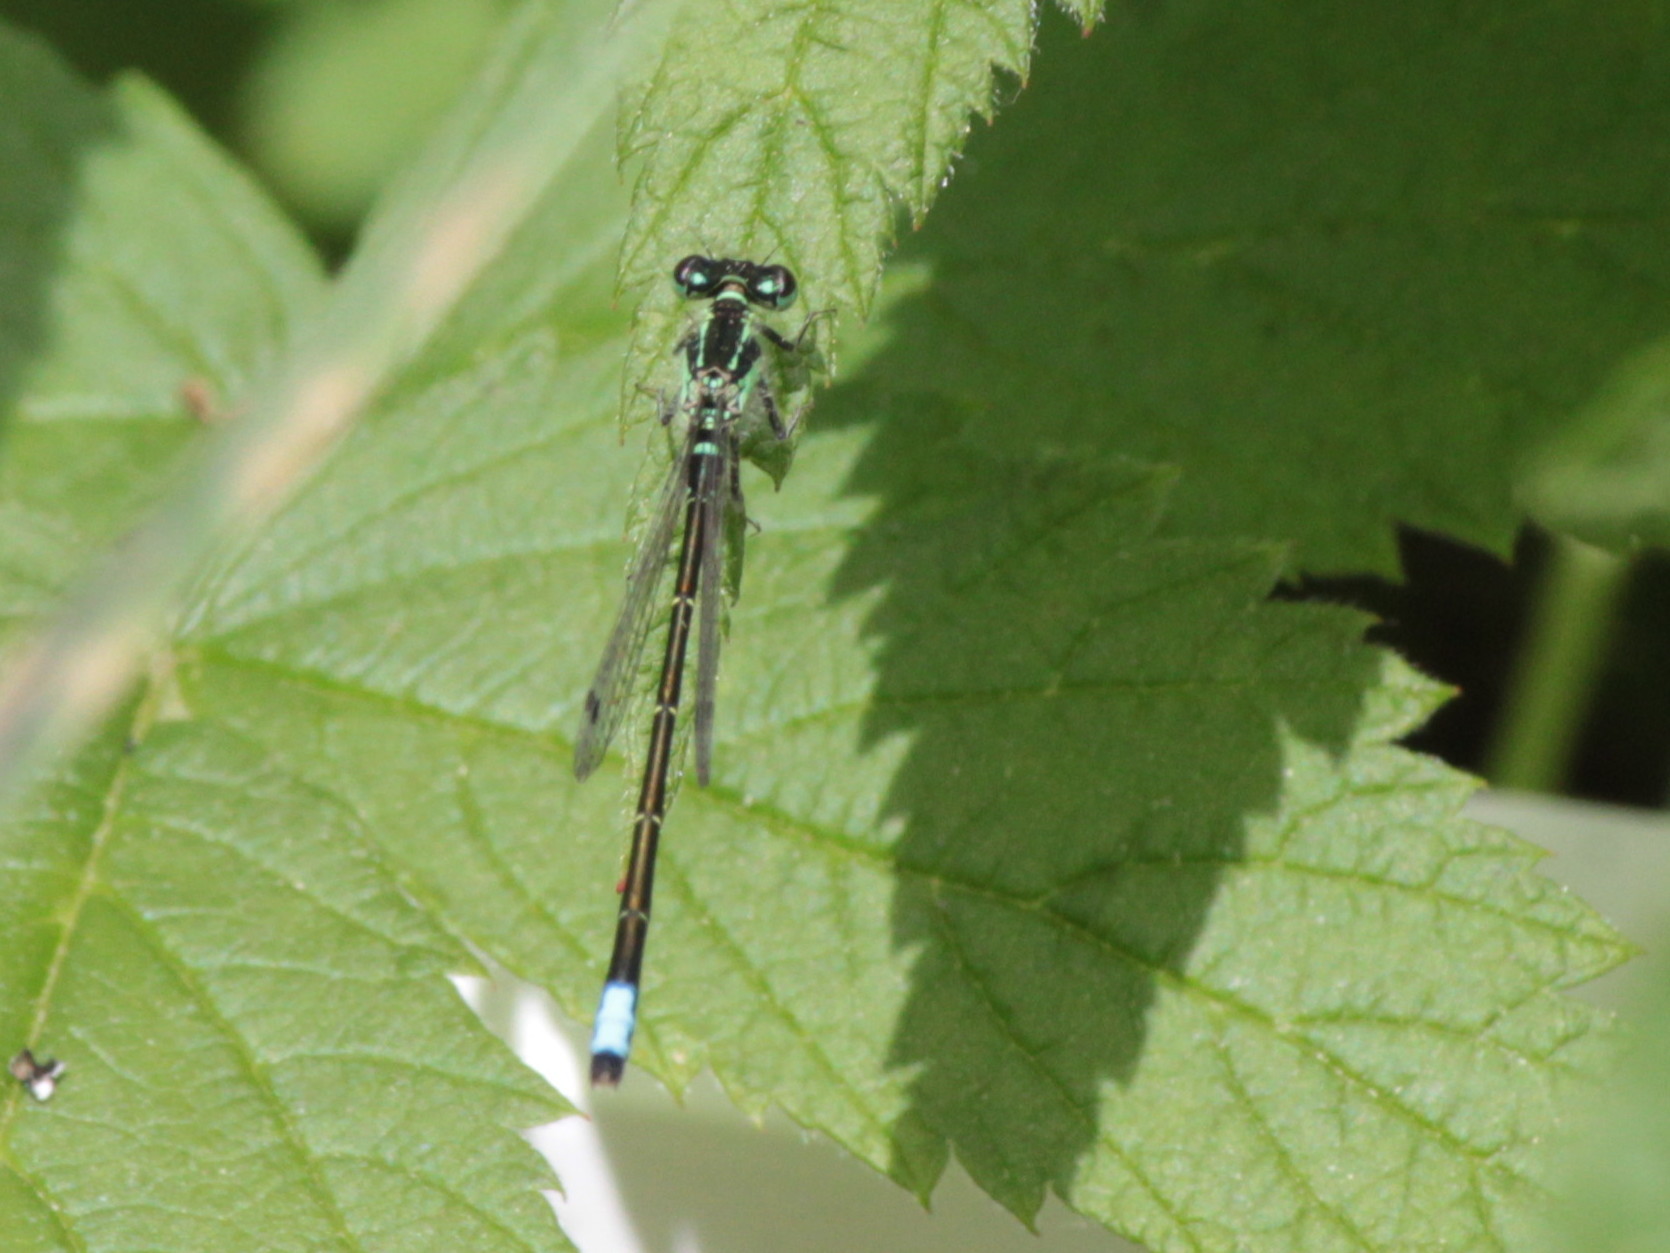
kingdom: Animalia
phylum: Arthropoda
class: Insecta
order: Odonata
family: Coenagrionidae
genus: Ischnura
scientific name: Ischnura verticalis
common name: Eastern forktail
